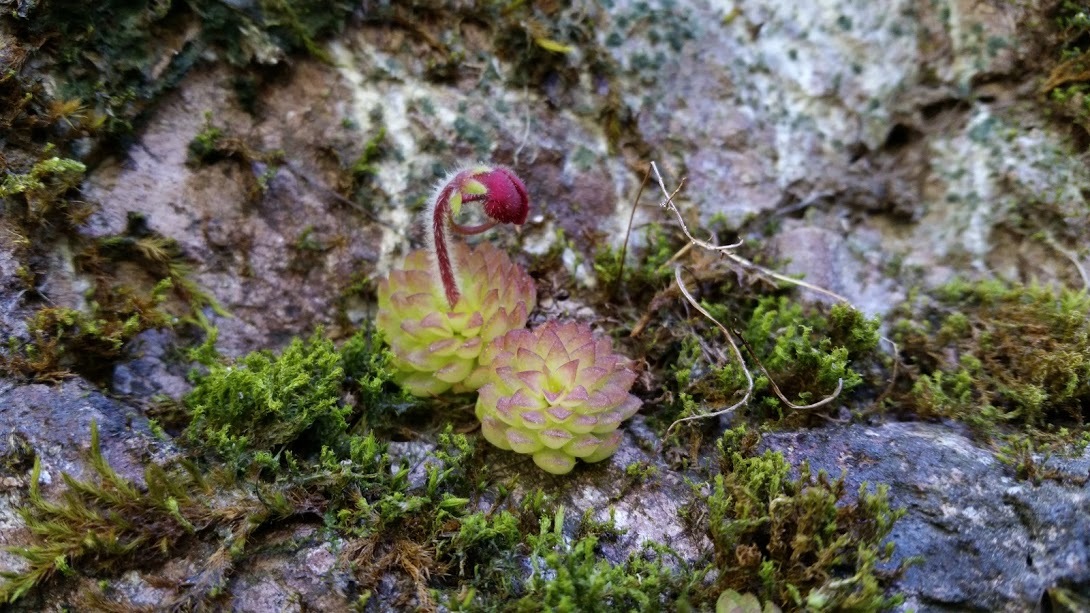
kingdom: Plantae
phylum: Tracheophyta
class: Magnoliopsida
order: Lamiales
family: Lentibulariaceae
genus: Pinguicula
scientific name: Pinguicula crassifolia
